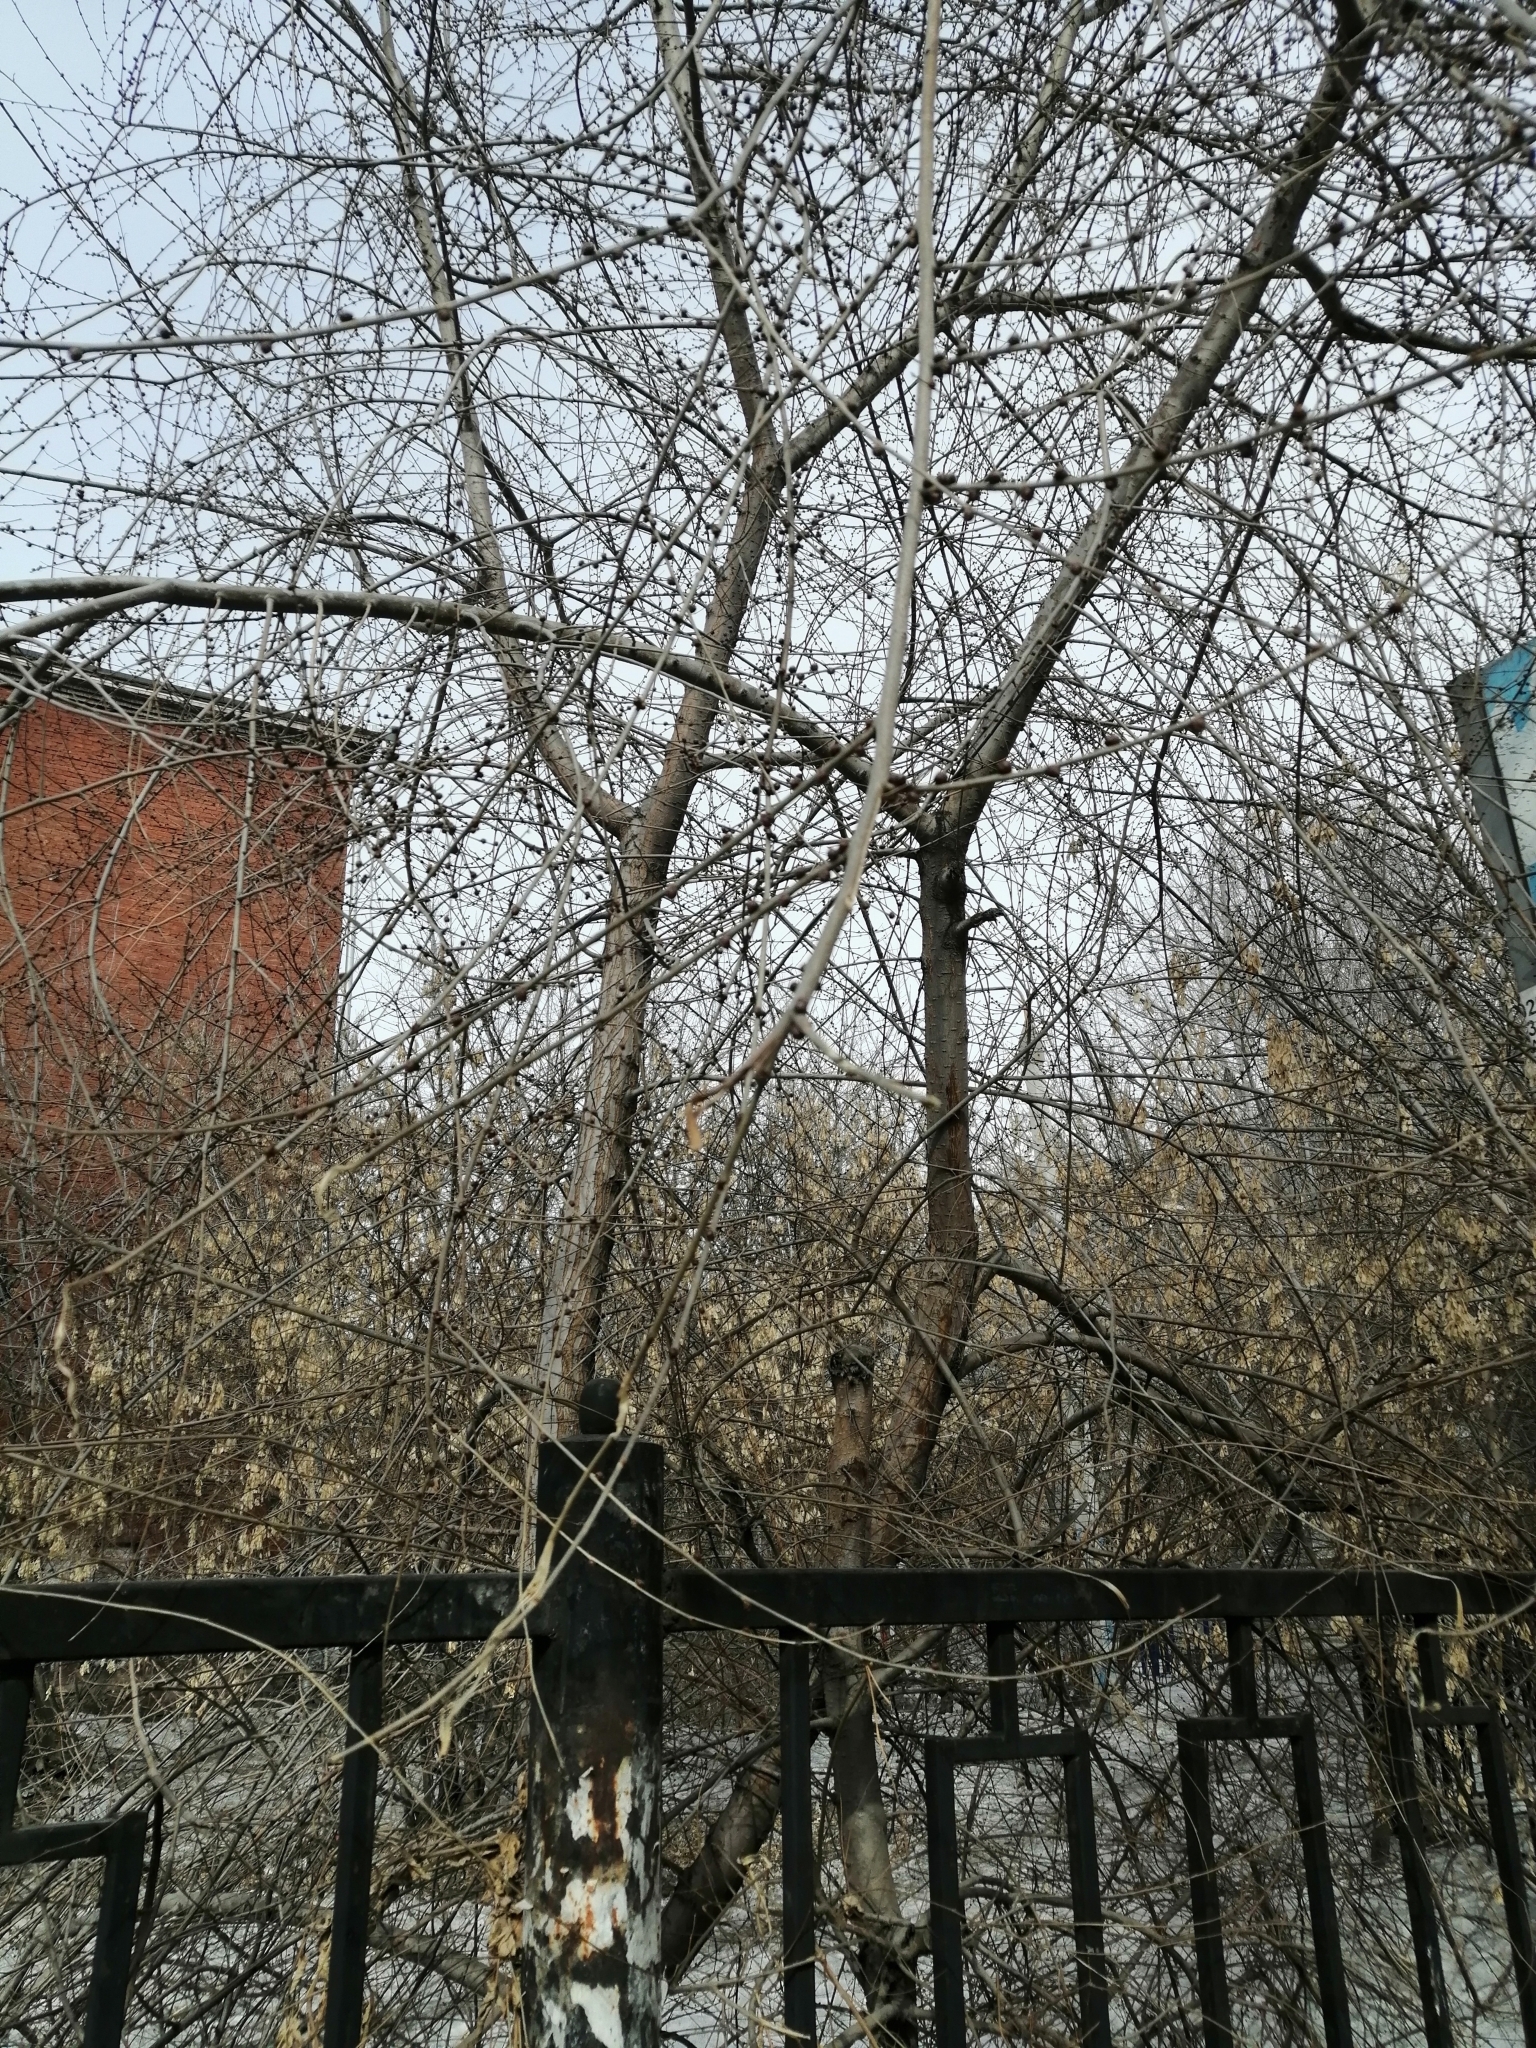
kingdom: Plantae
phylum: Tracheophyta
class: Magnoliopsida
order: Rosales
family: Ulmaceae
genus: Ulmus
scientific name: Ulmus pumila
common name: Siberian elm
